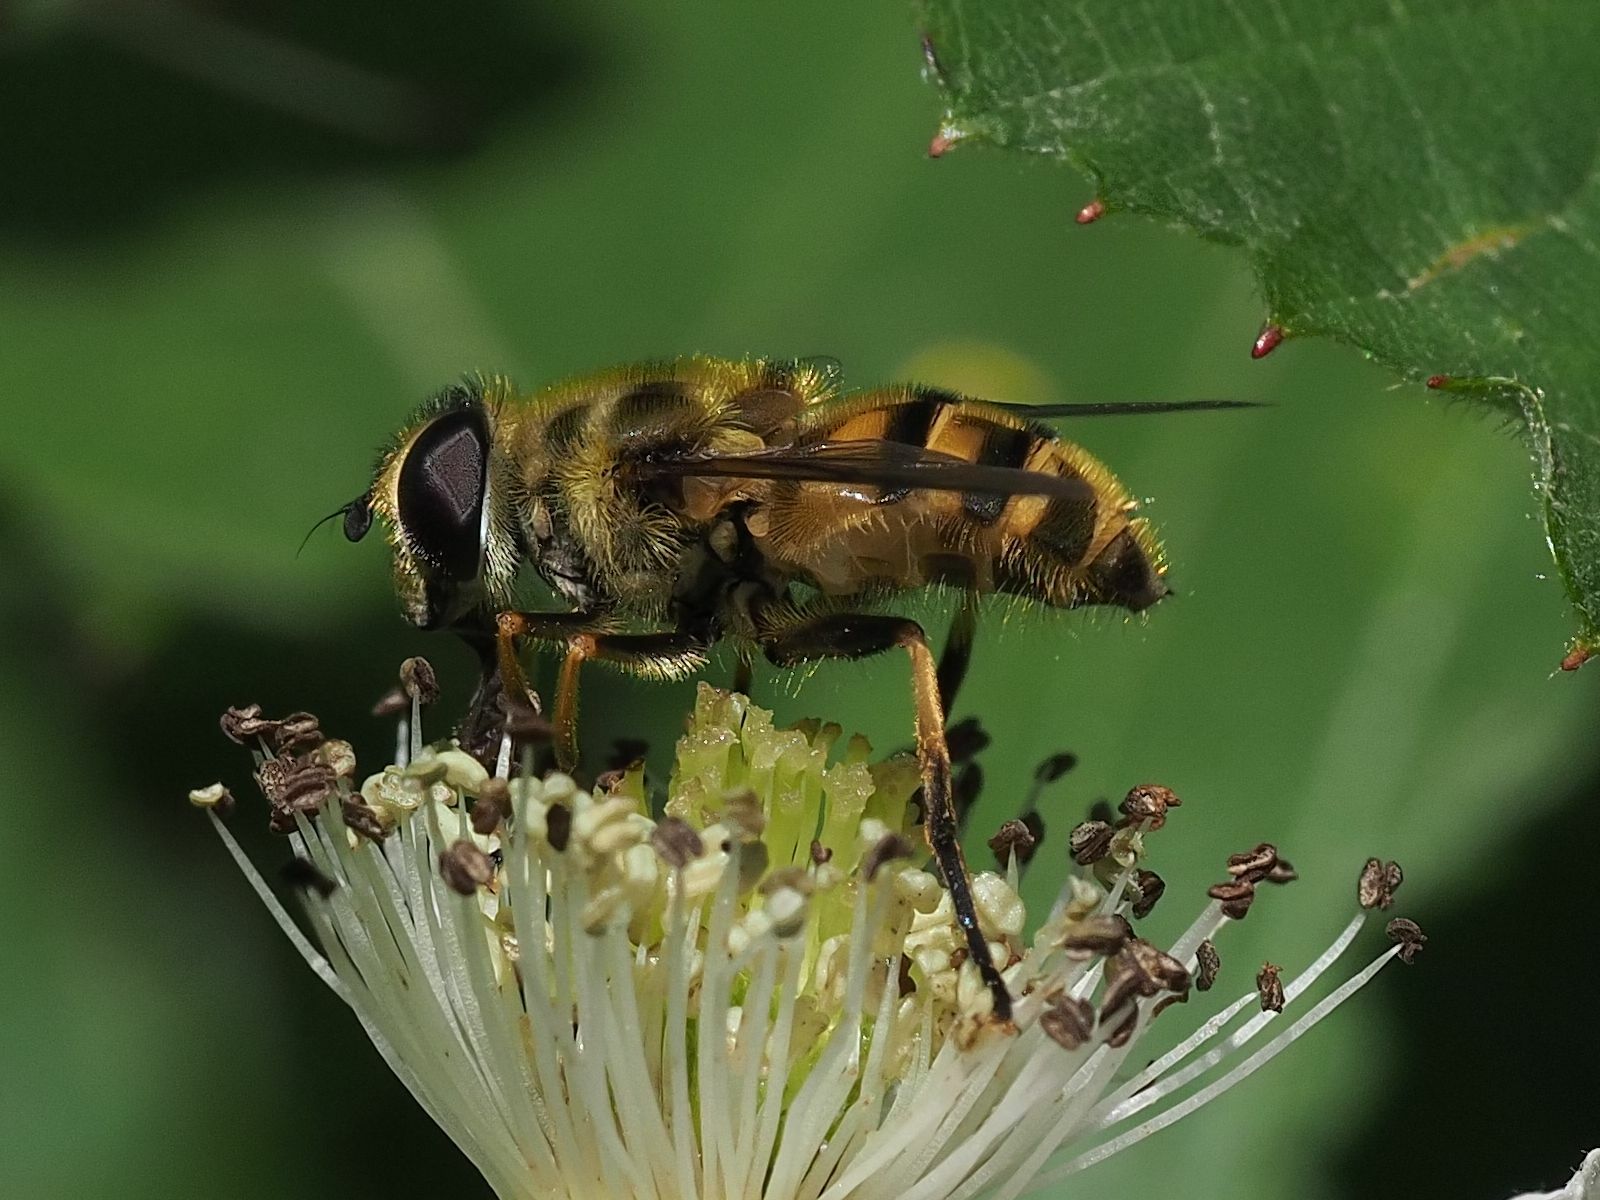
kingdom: Animalia
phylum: Arthropoda
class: Insecta
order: Diptera
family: Syrphidae
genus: Myathropa
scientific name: Myathropa florea
